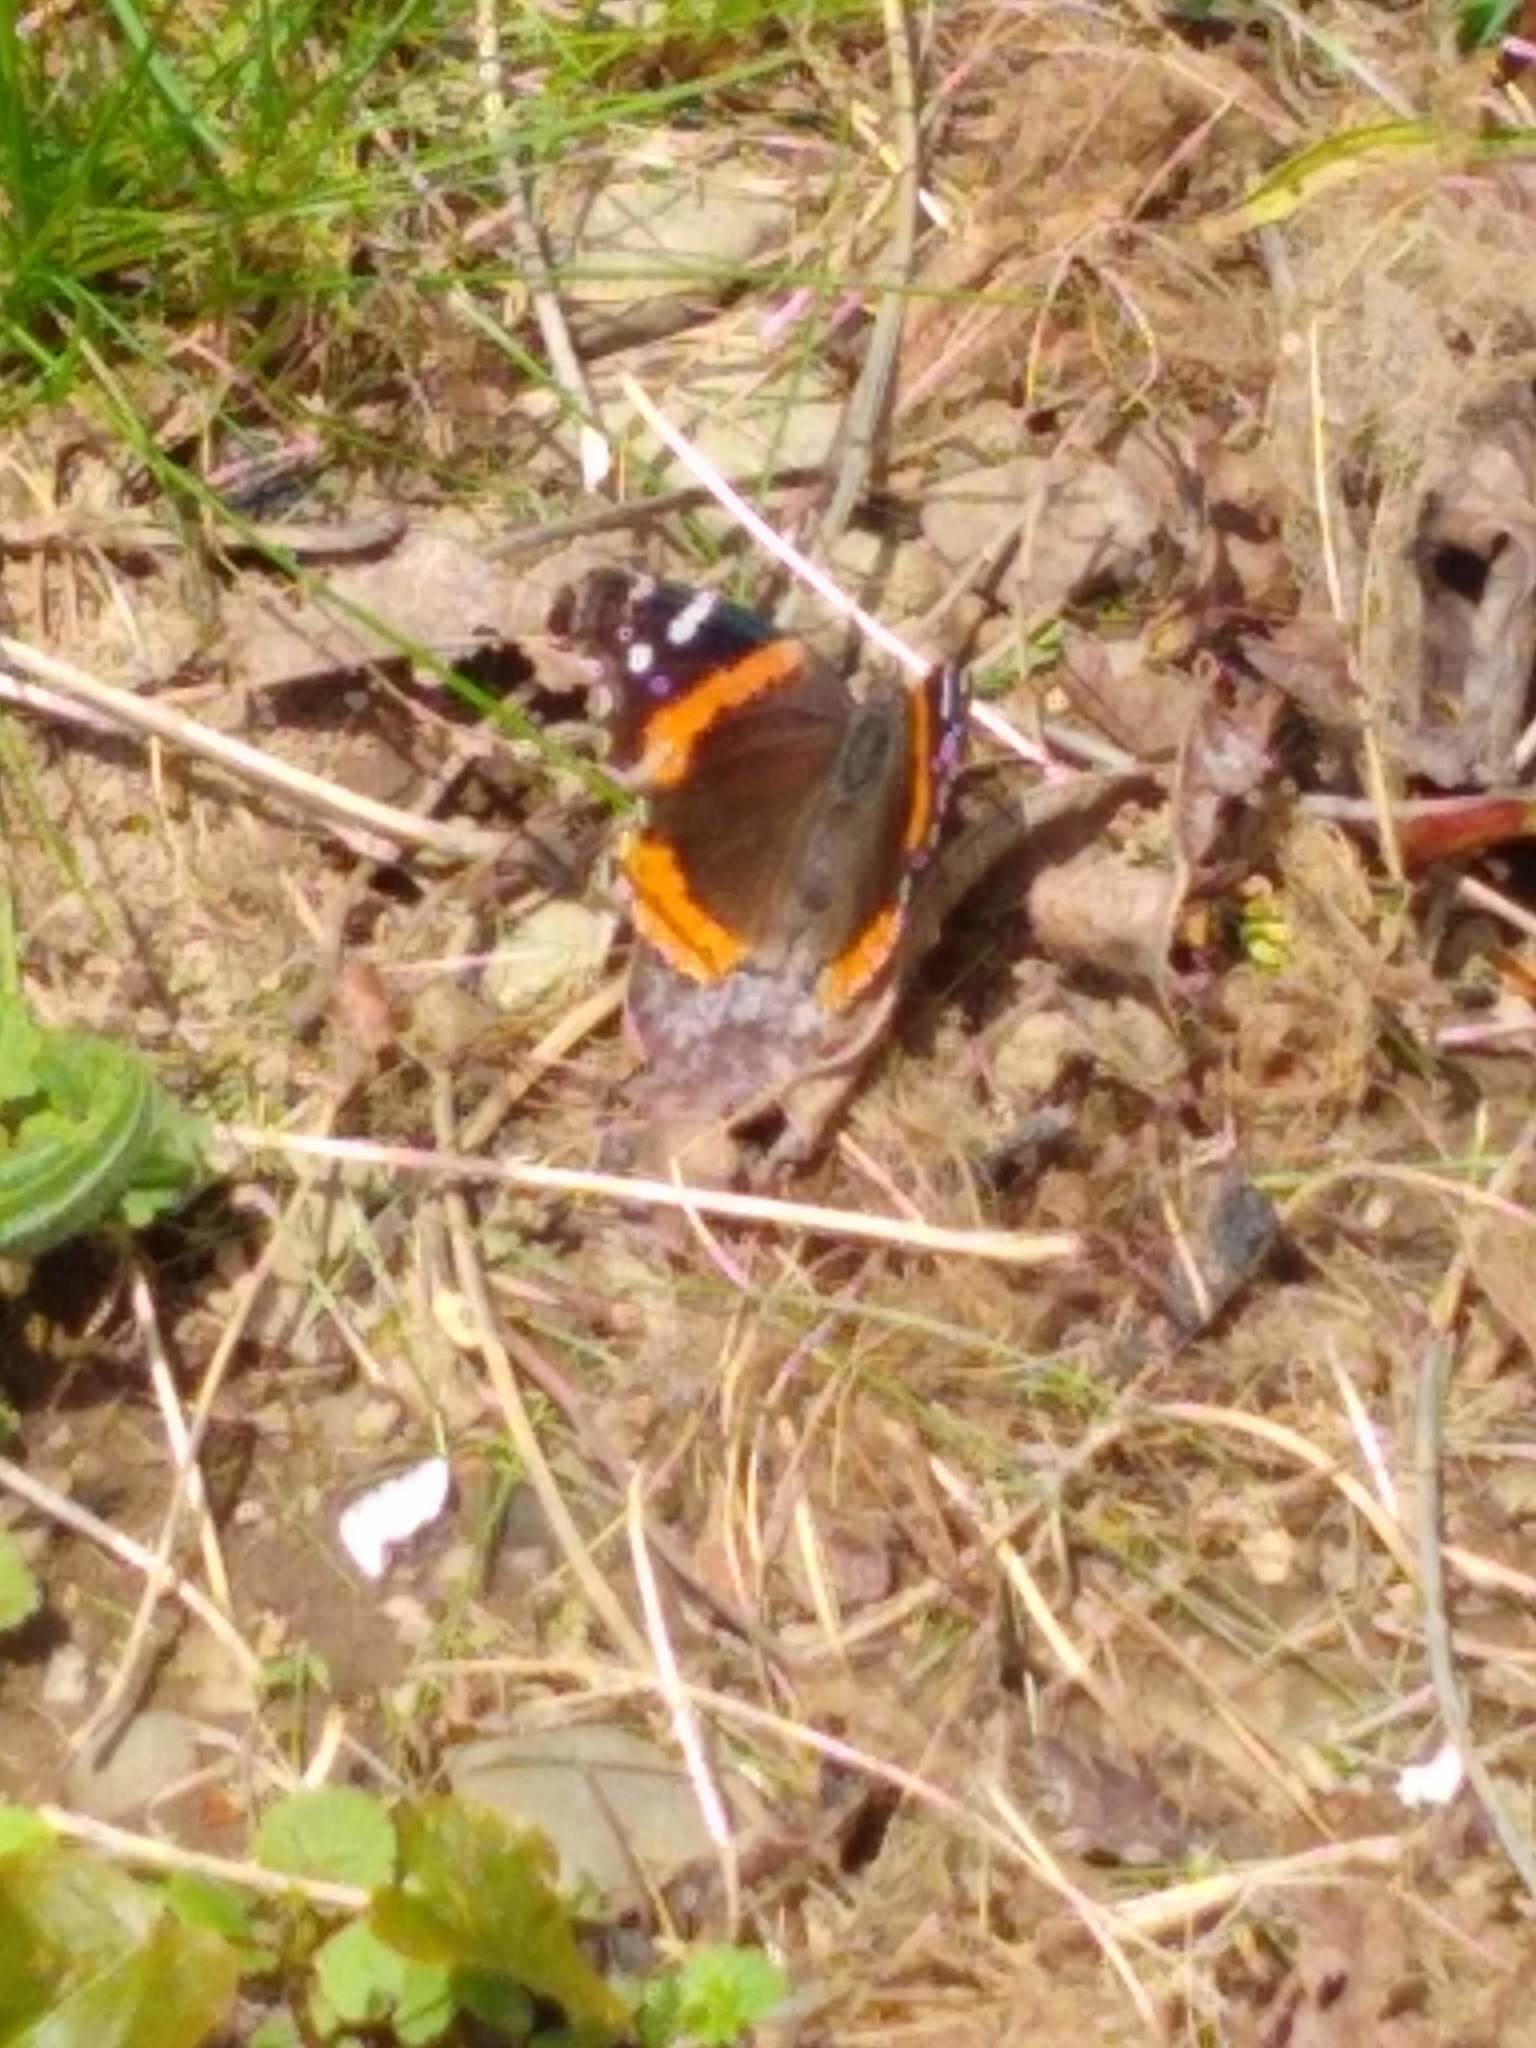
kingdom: Animalia
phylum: Arthropoda
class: Insecta
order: Lepidoptera
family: Nymphalidae
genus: Vanessa
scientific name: Vanessa atalanta
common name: Red admiral
